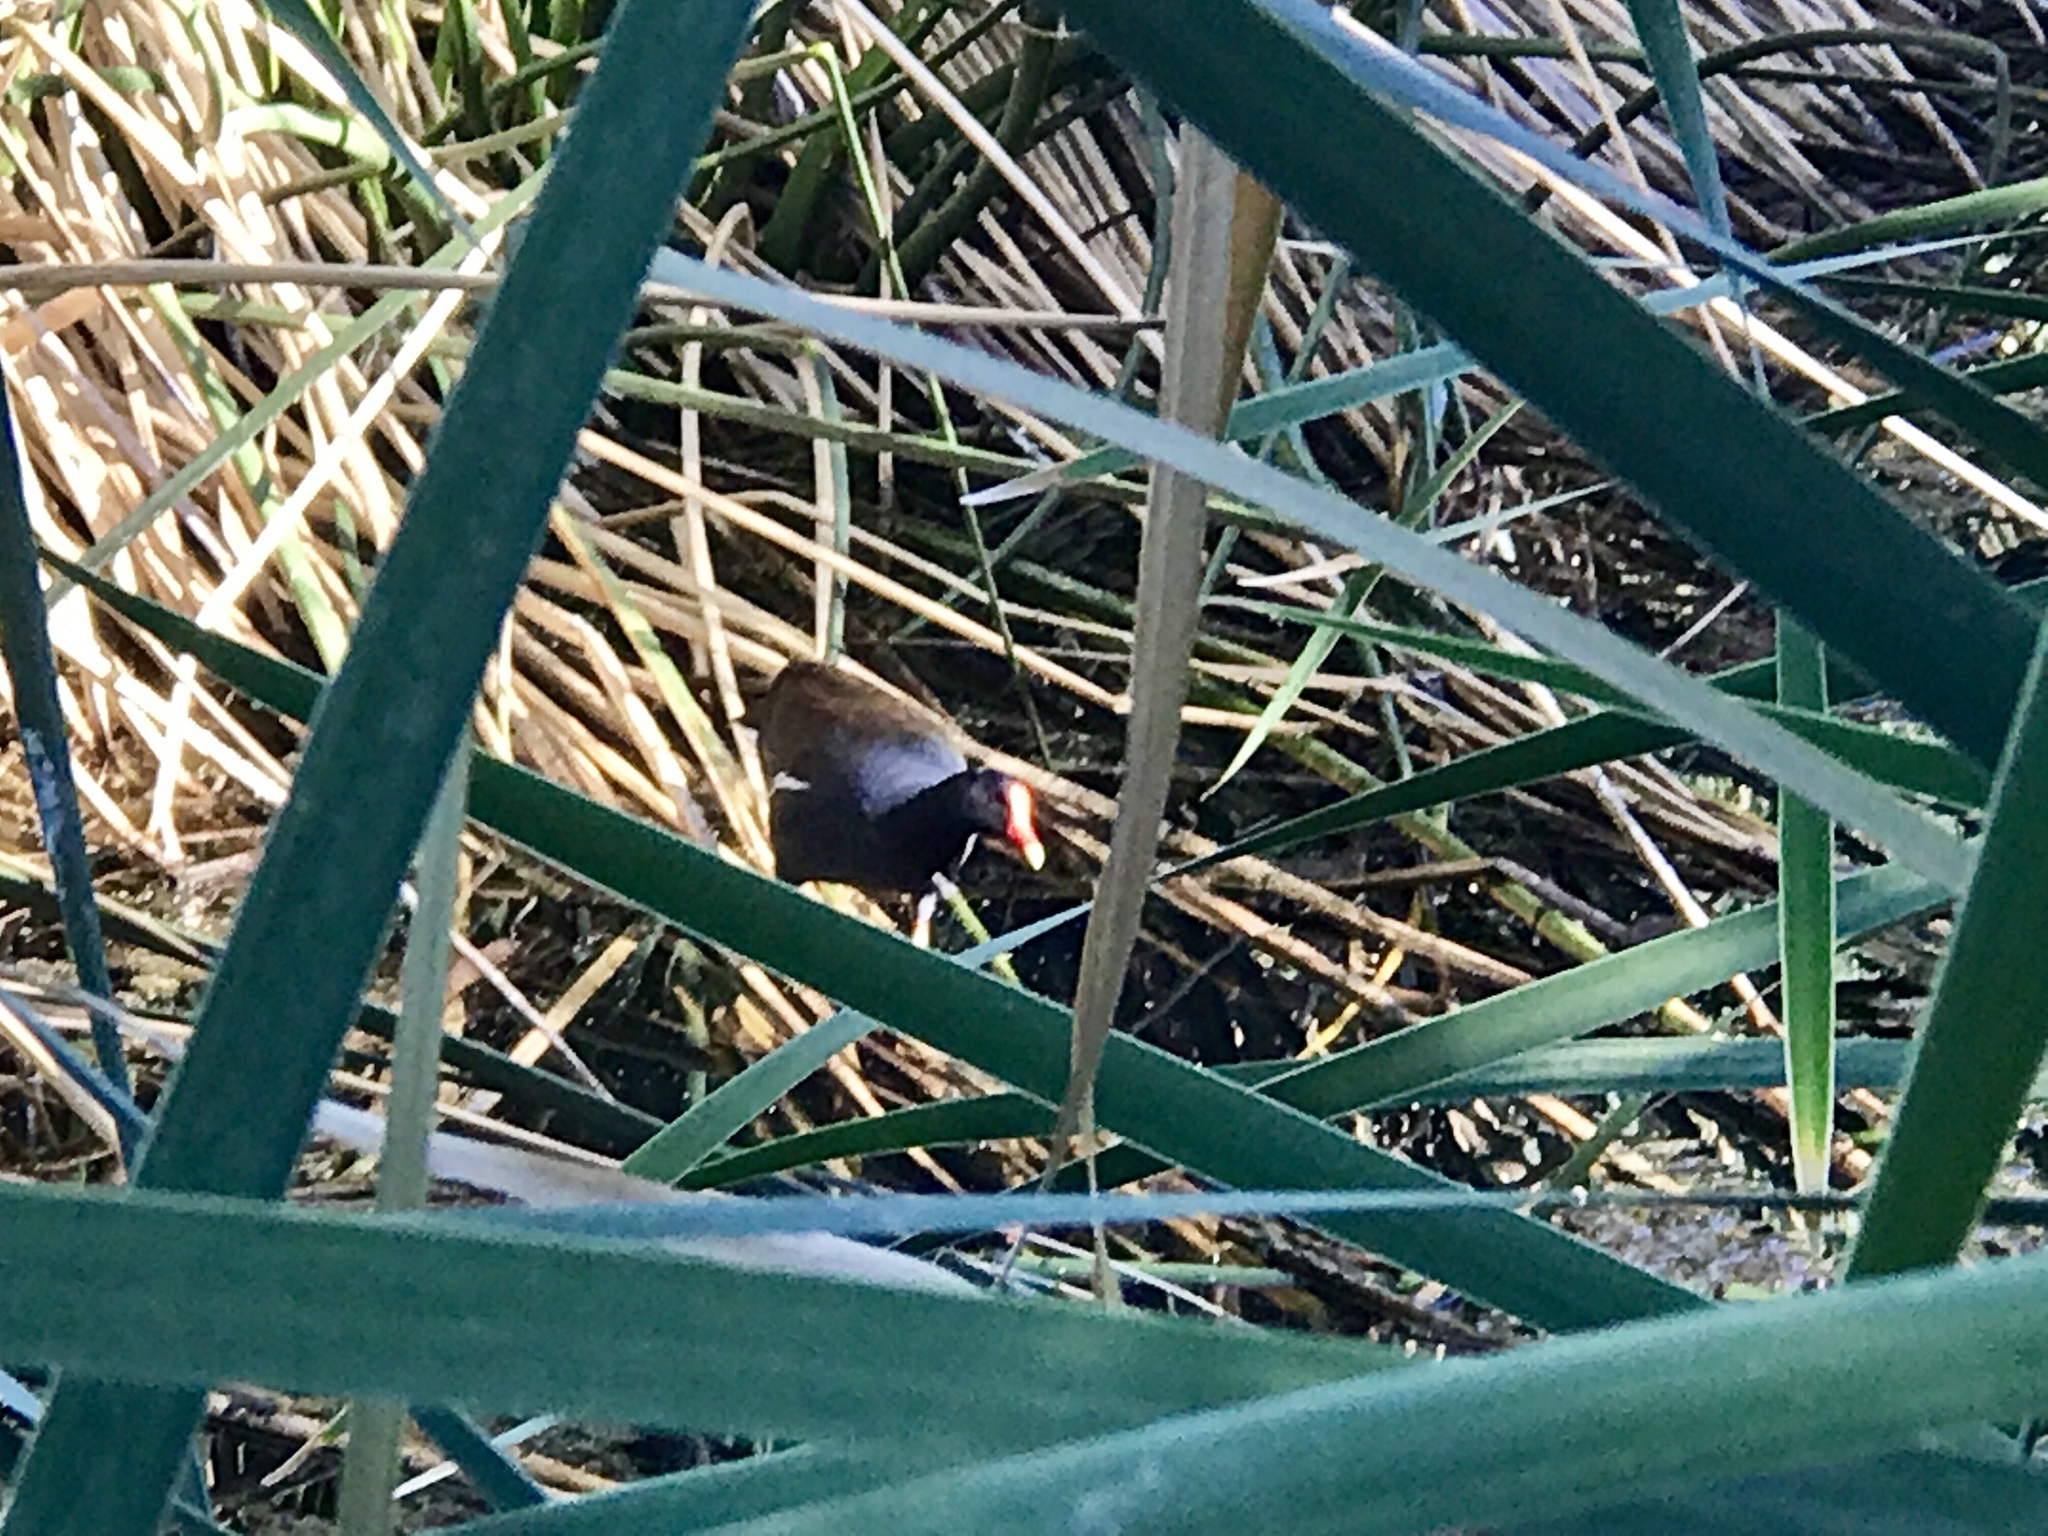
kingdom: Animalia
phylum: Chordata
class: Aves
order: Gruiformes
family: Rallidae
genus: Gallinula
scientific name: Gallinula chloropus
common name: Common moorhen
